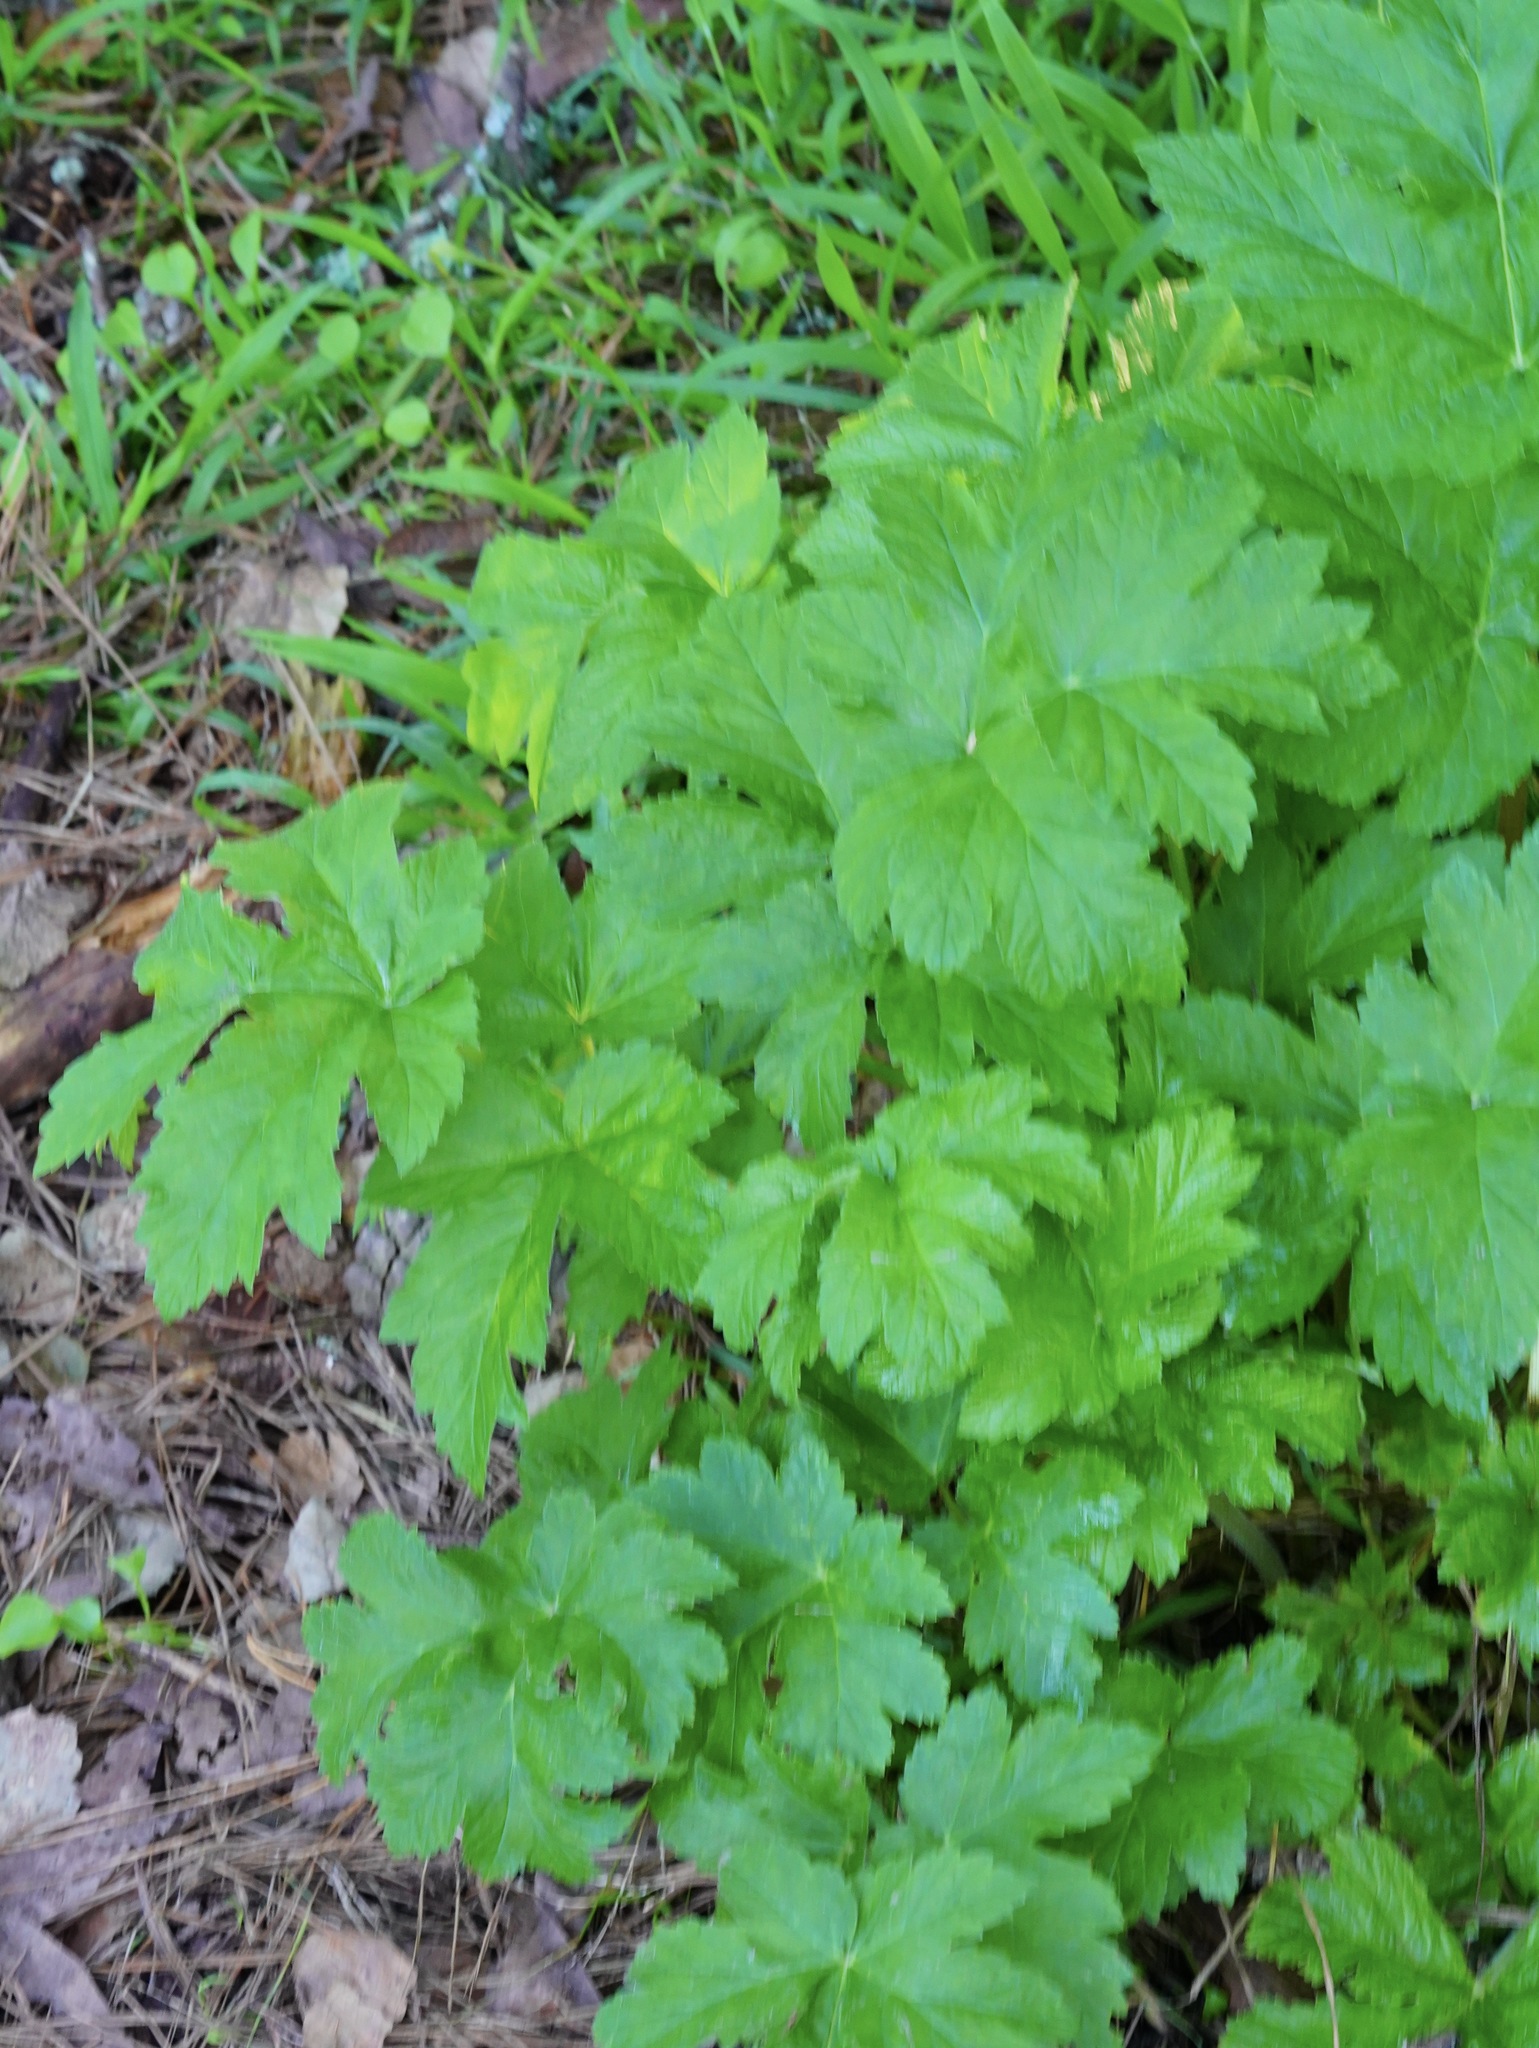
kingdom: Plantae
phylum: Tracheophyta
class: Magnoliopsida
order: Apiales
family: Apiaceae
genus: Heracleum
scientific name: Heracleum maximum
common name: American cow parsnip
